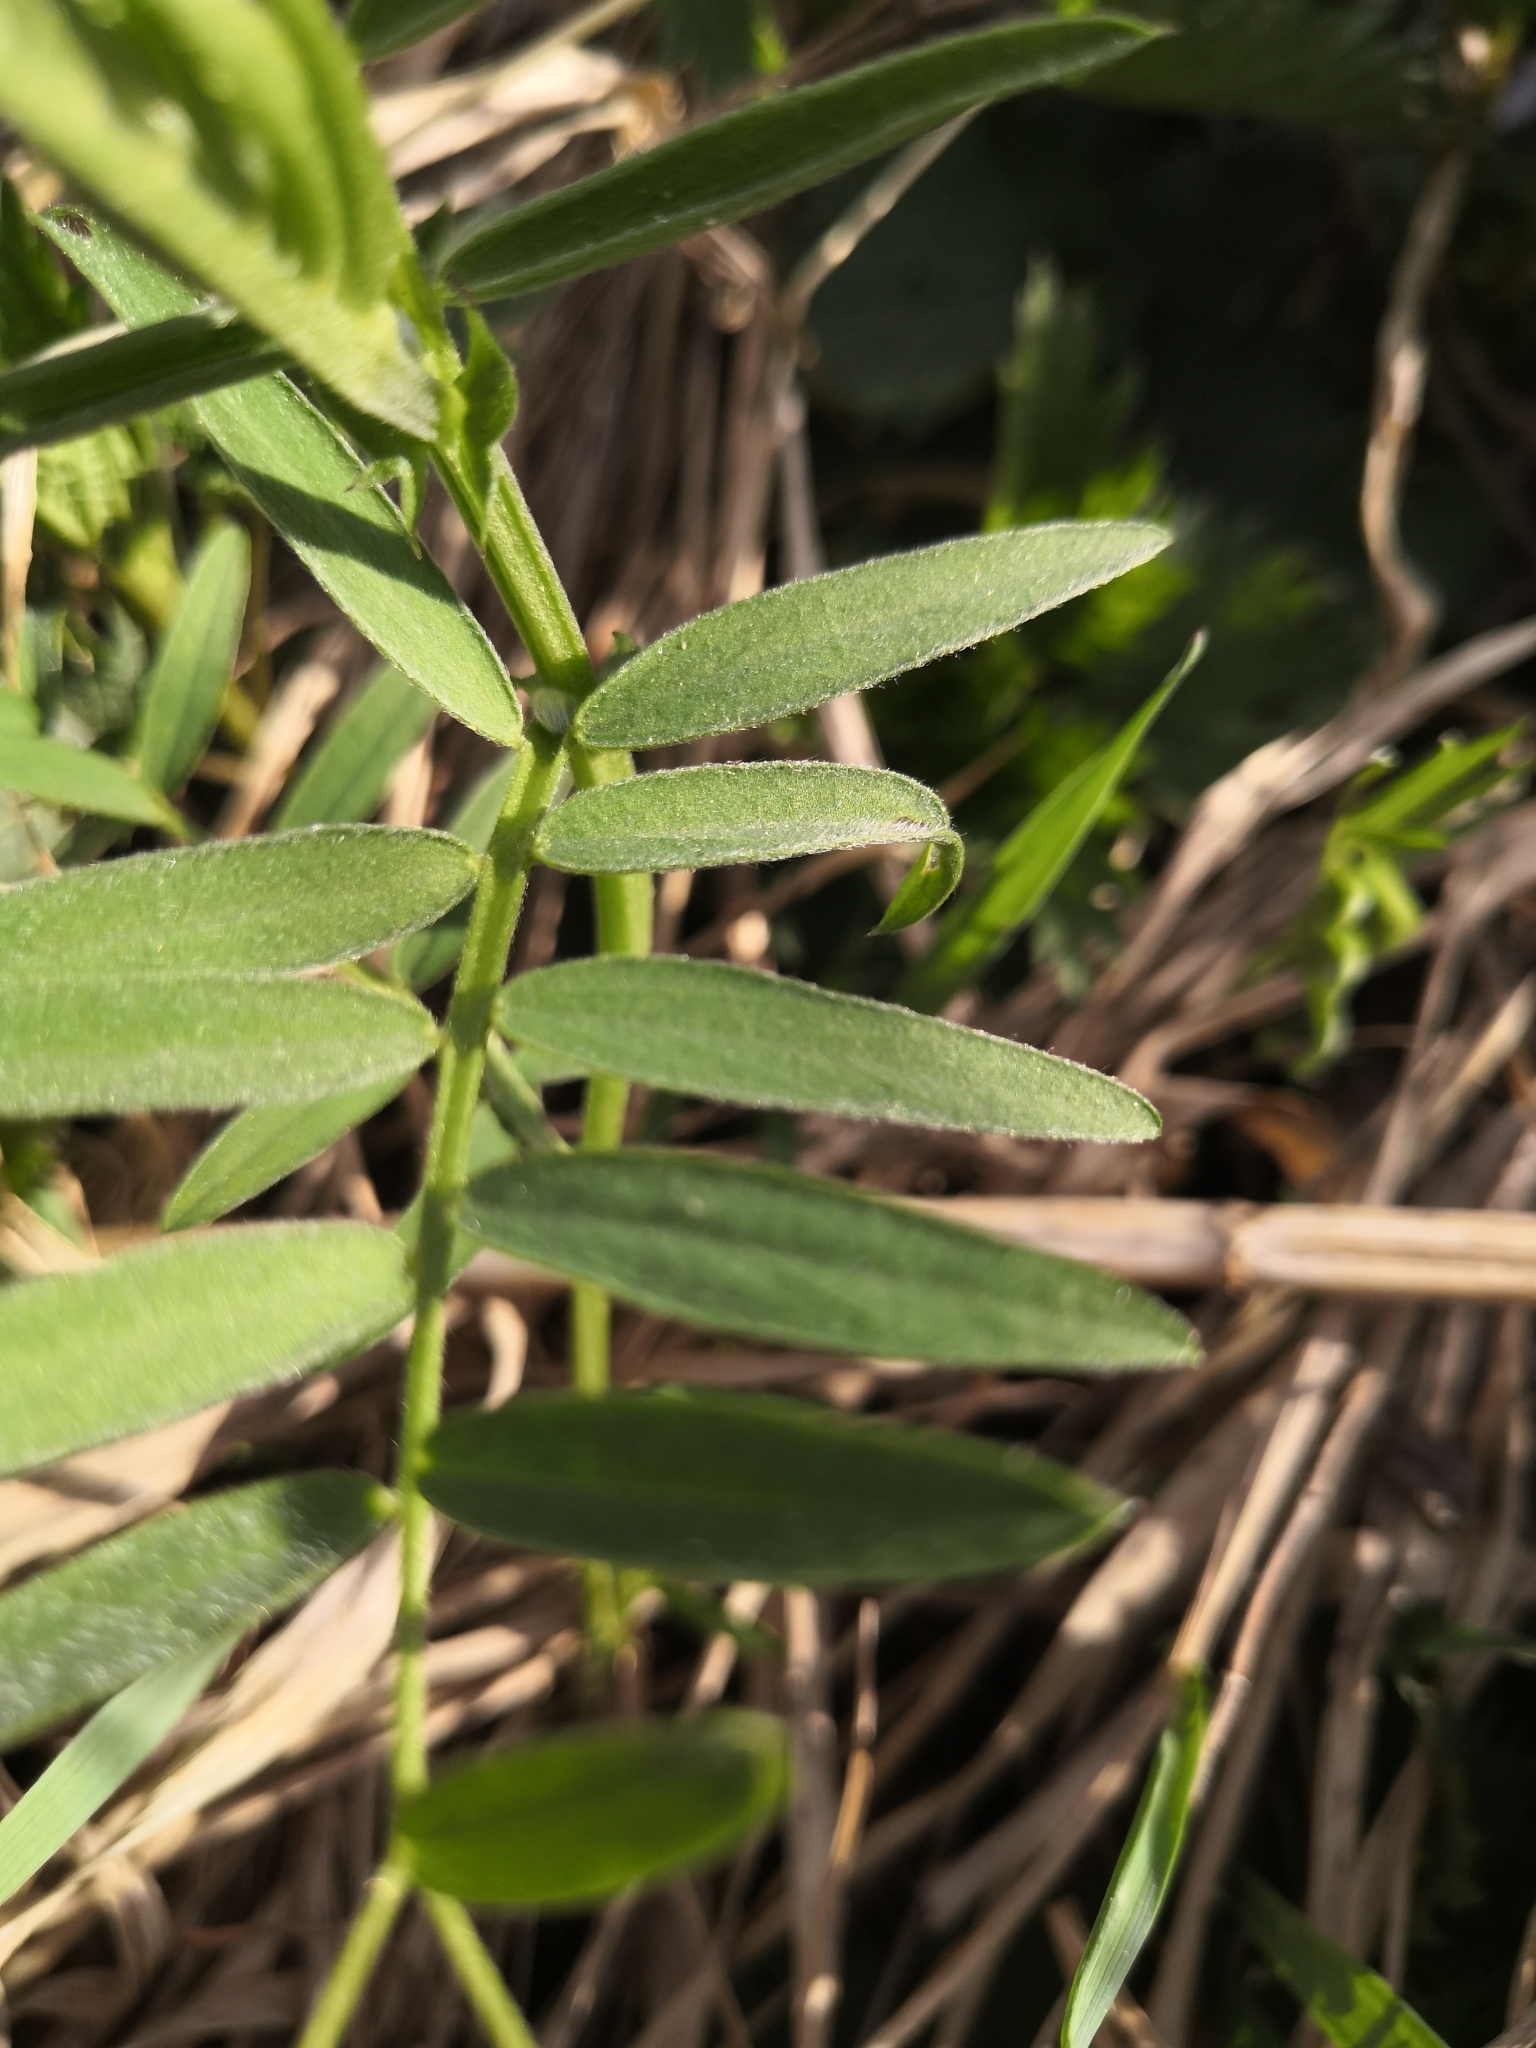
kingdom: Plantae
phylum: Tracheophyta
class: Magnoliopsida
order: Fabales
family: Fabaceae
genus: Vicia
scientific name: Vicia cracca
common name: Bird vetch
